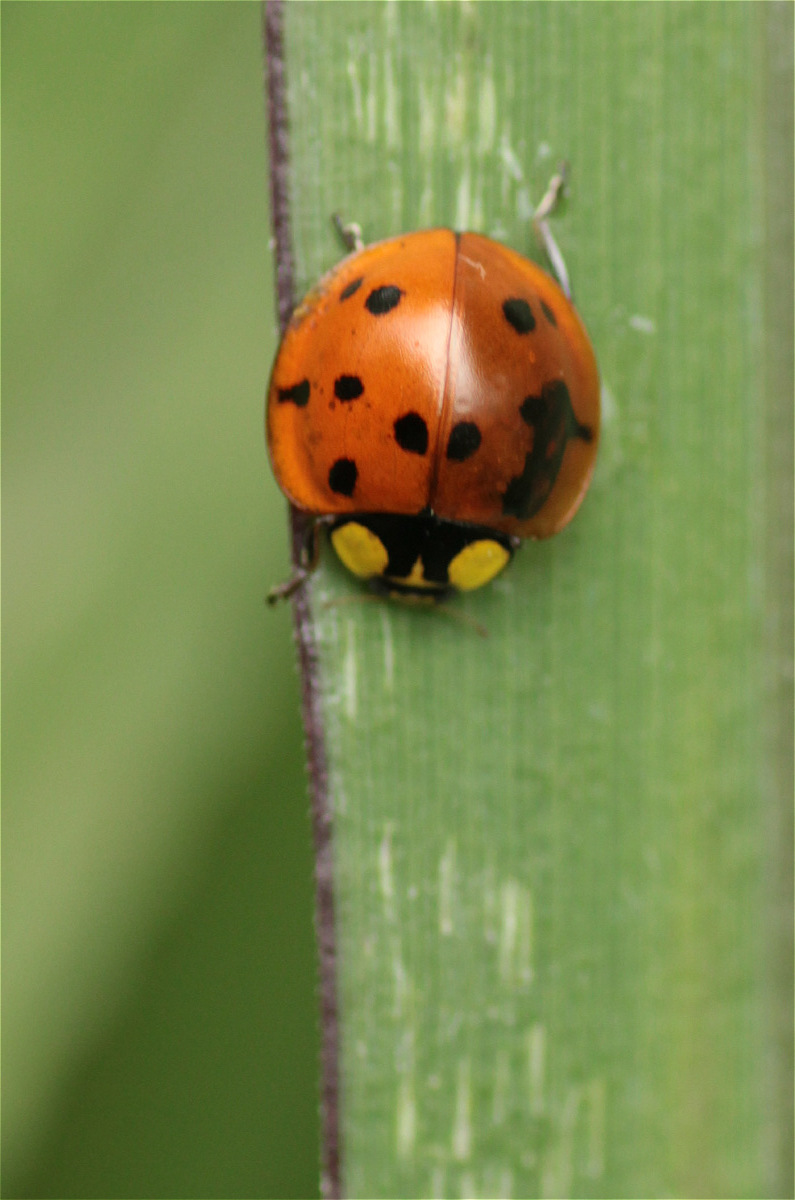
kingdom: Animalia
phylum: Arthropoda
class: Insecta
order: Coleoptera
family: Coccinellidae
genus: Neda
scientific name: Neda aequatoriana
